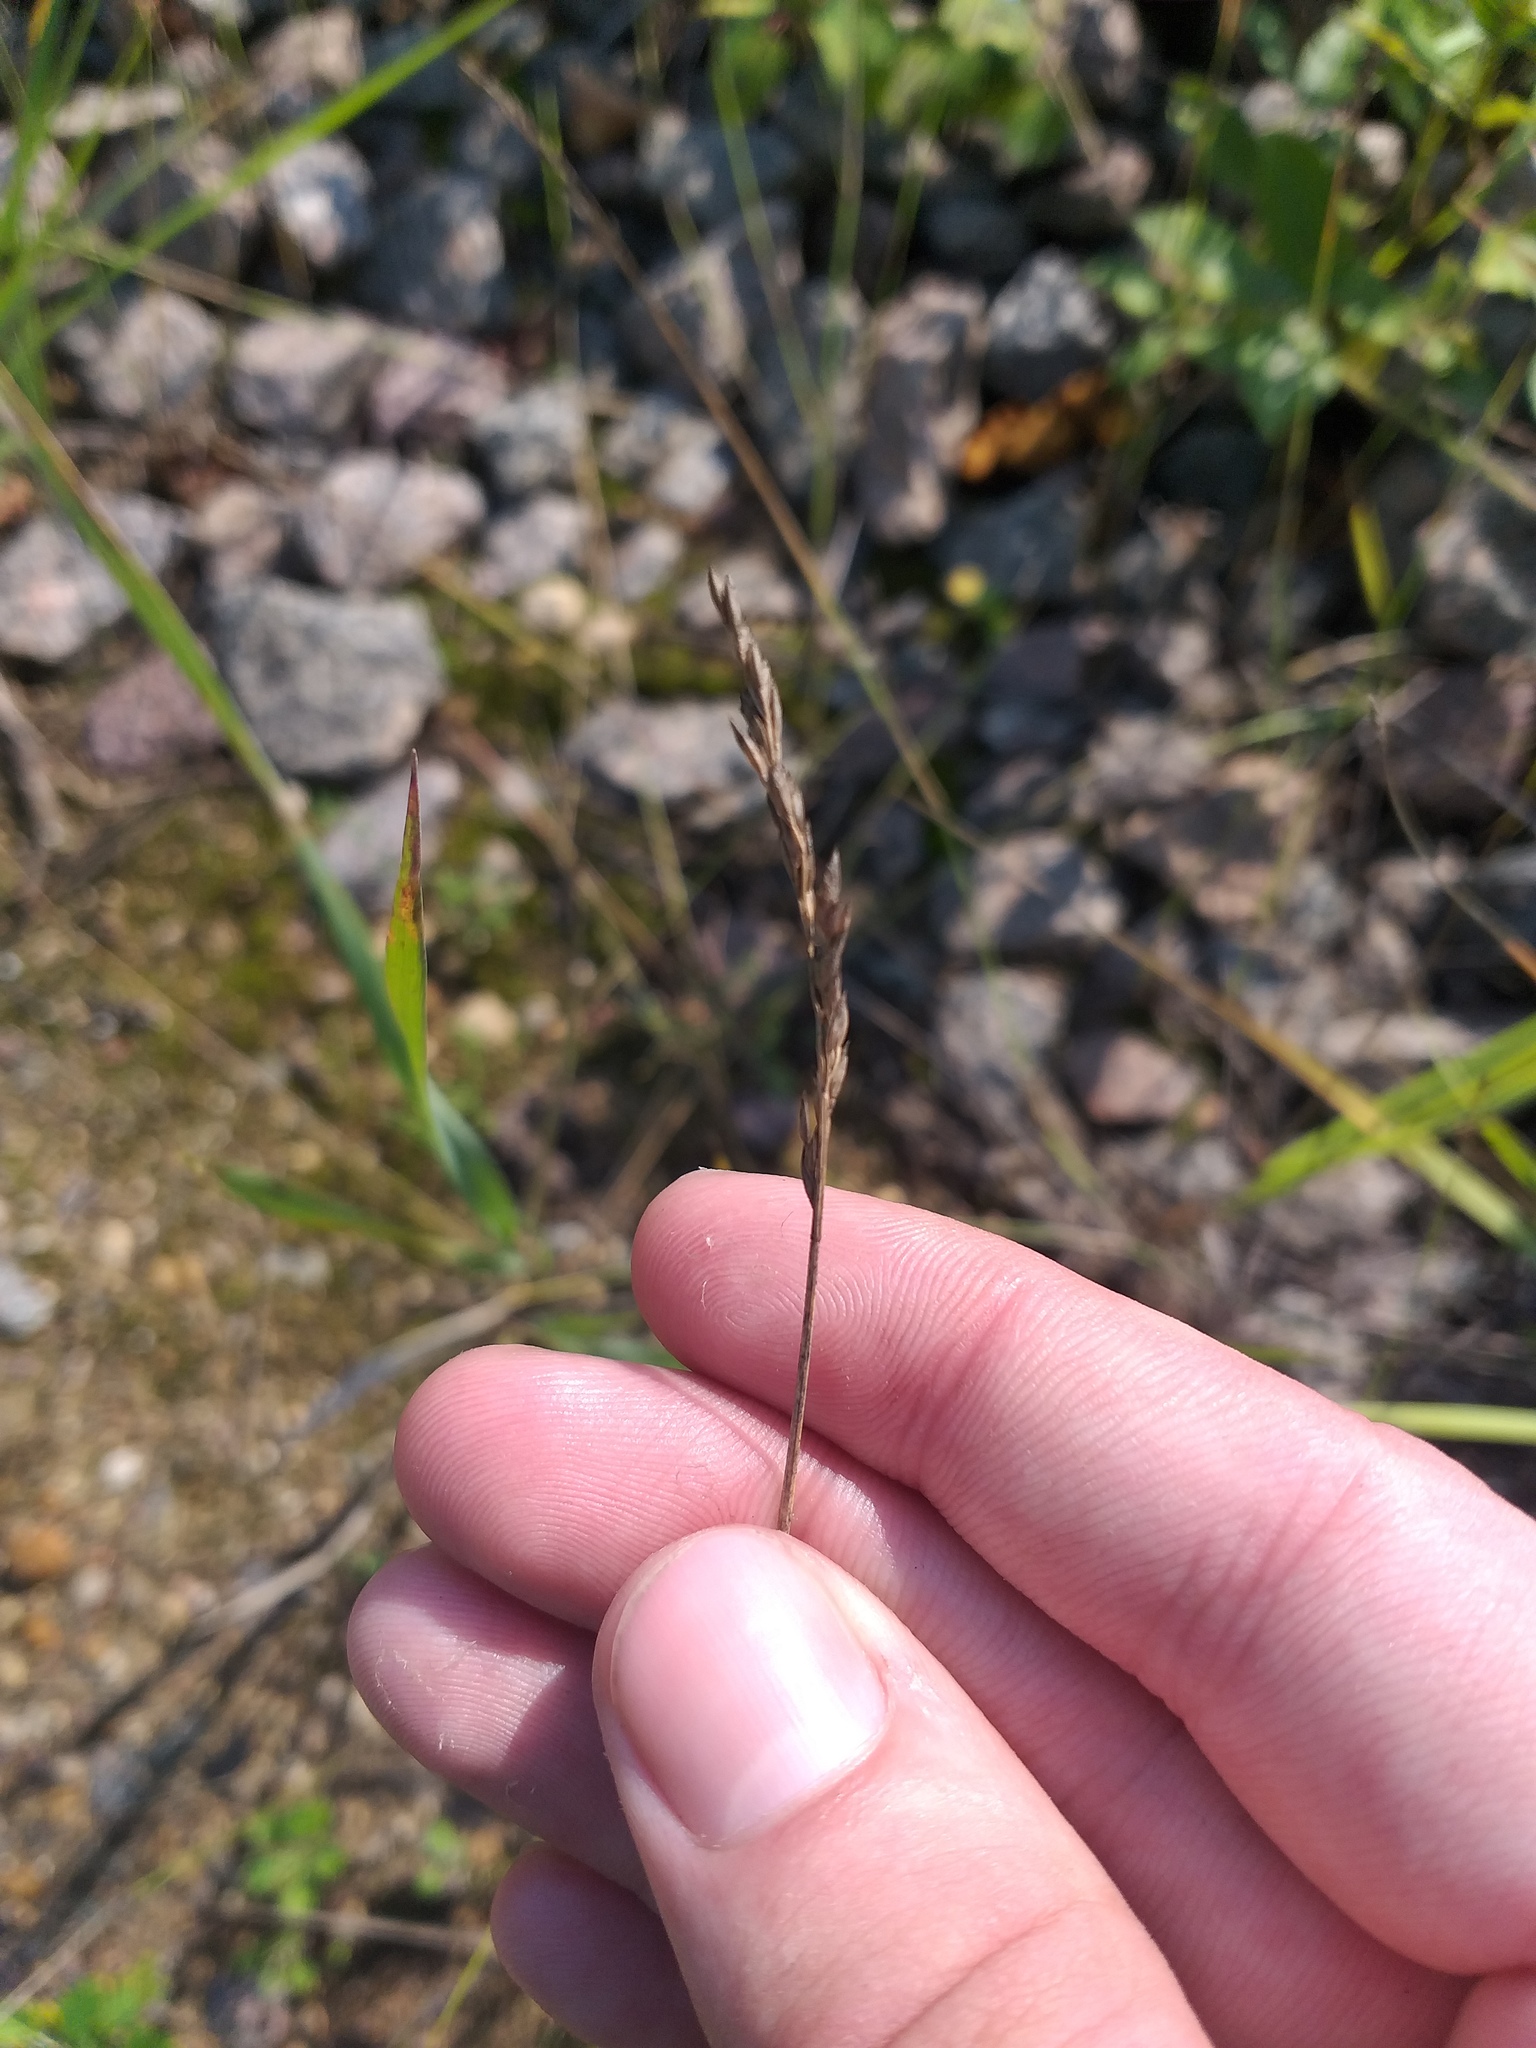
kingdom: Plantae
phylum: Tracheophyta
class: Liliopsida
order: Poales
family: Poaceae
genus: Poa
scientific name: Poa compressa
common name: Canada bluegrass
